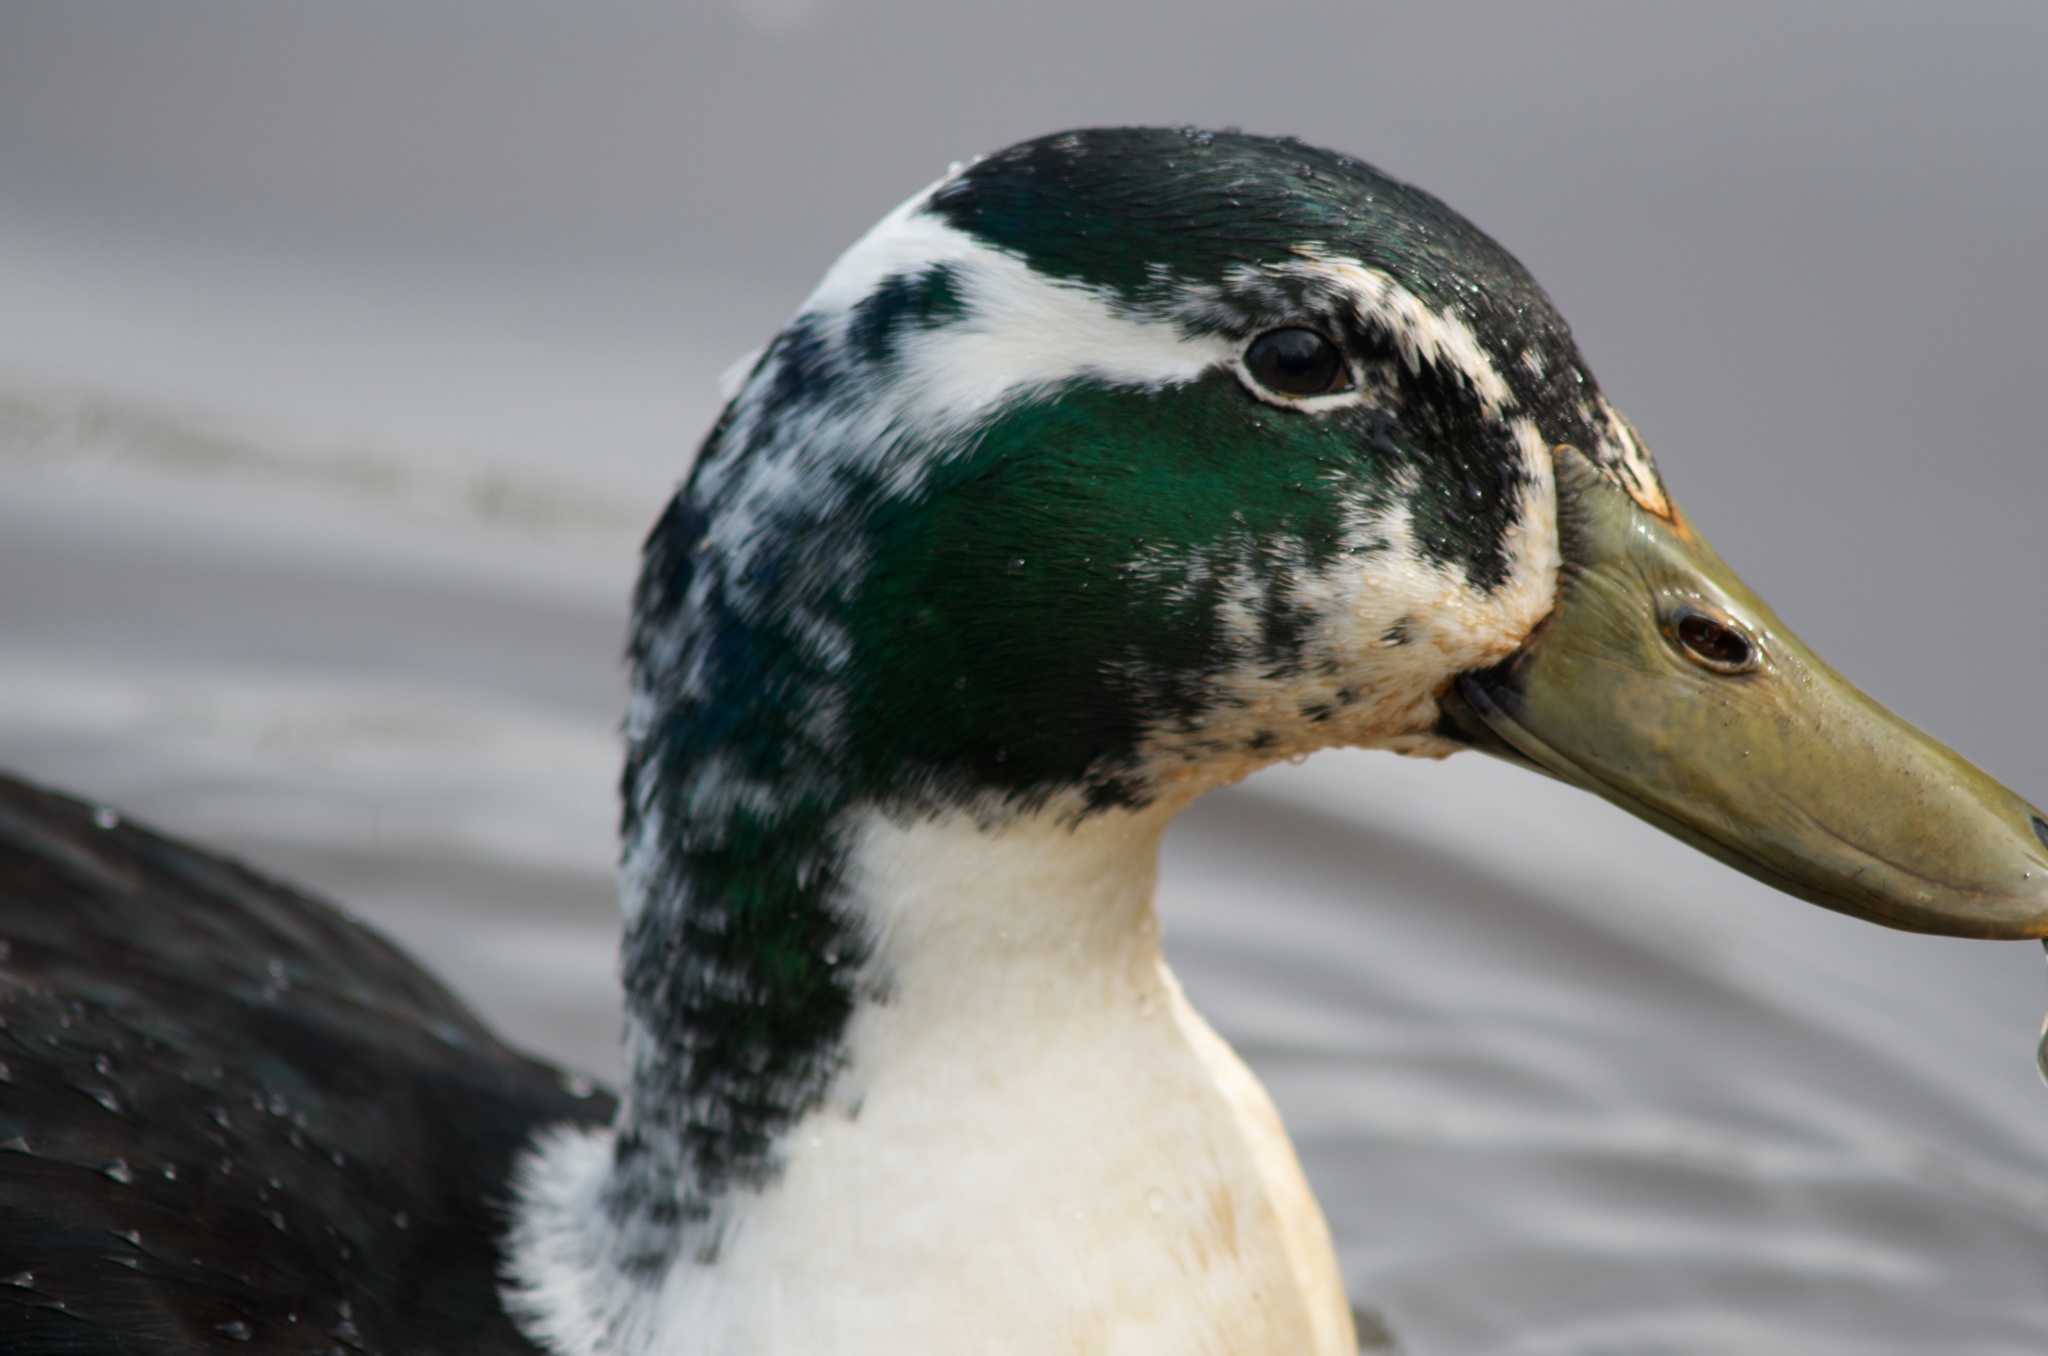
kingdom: Animalia
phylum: Chordata
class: Aves
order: Anseriformes
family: Anatidae
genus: Anas
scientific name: Anas platyrhynchos
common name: Mallard
